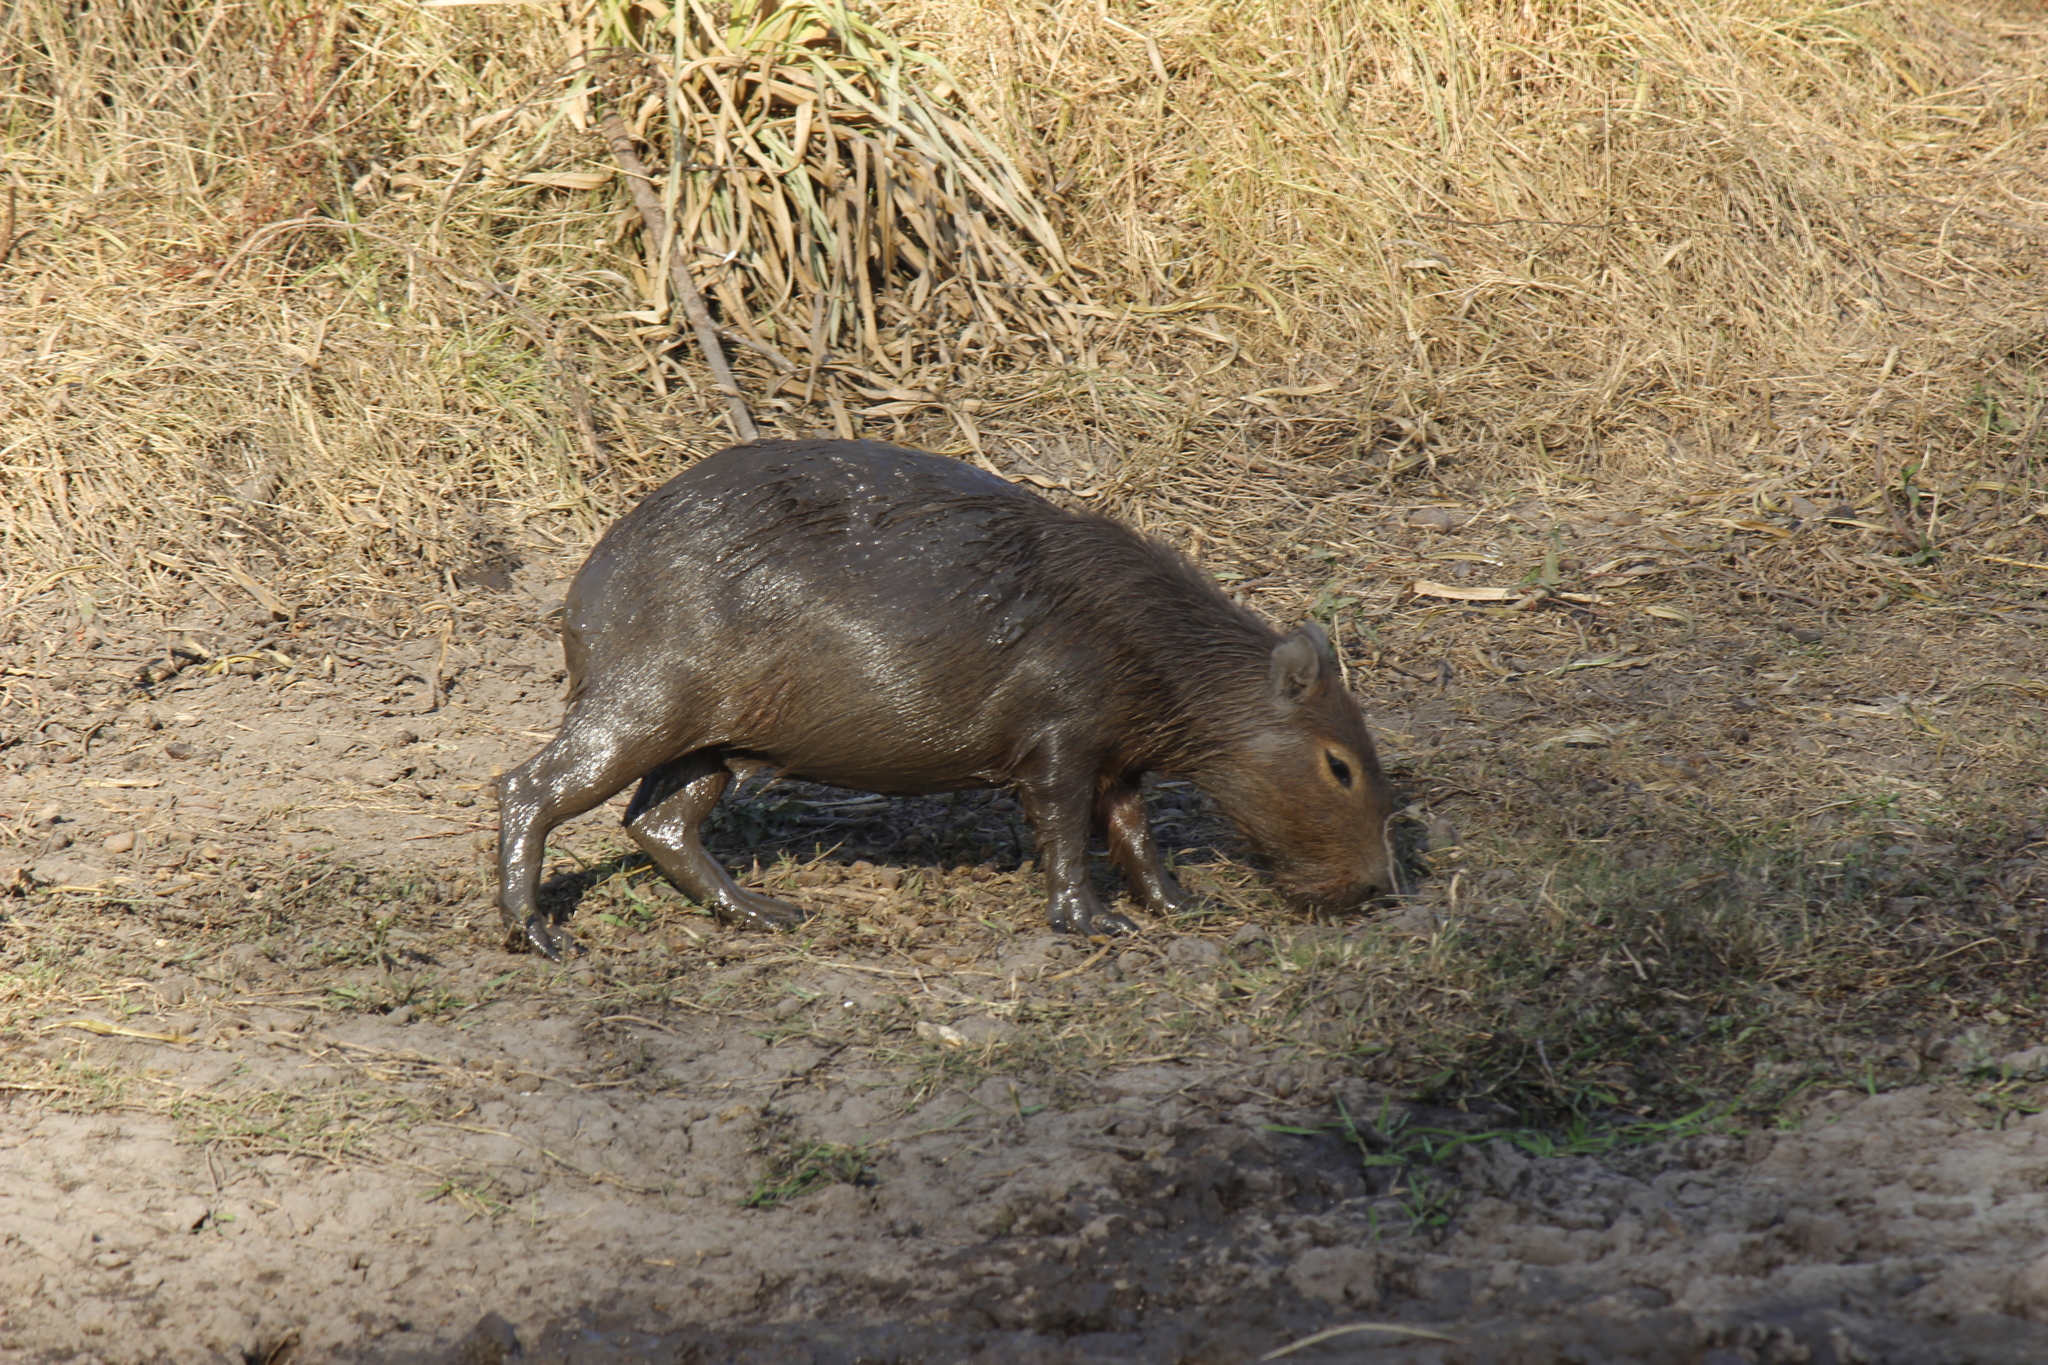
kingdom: Animalia
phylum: Chordata
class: Mammalia
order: Rodentia
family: Caviidae
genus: Hydrochoerus
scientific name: Hydrochoerus hydrochaeris
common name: Capybara
